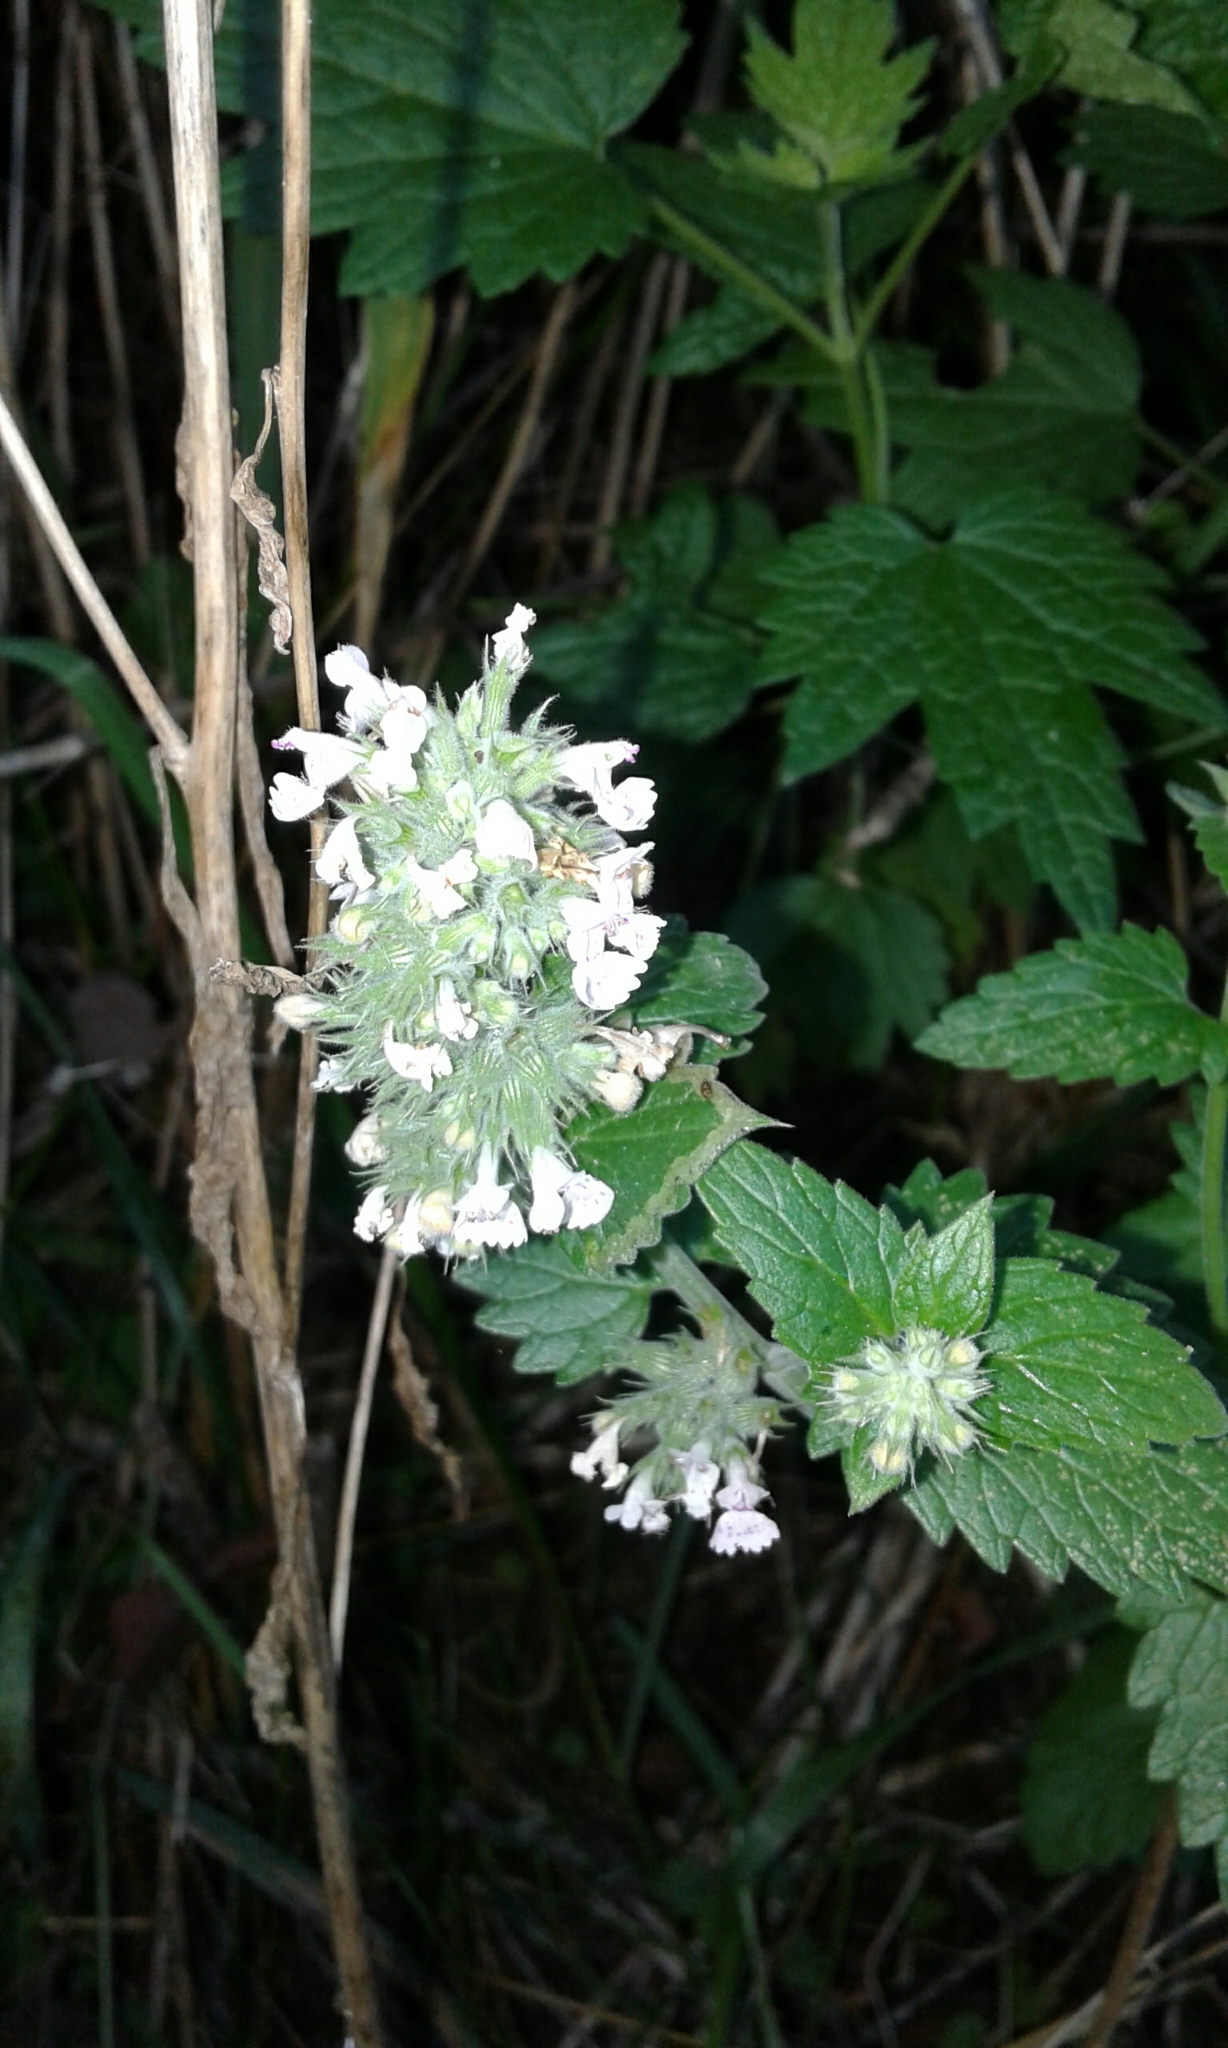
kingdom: Plantae
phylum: Tracheophyta
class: Magnoliopsida
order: Lamiales
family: Lamiaceae
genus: Nepeta
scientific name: Nepeta cataria
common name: Catnip
